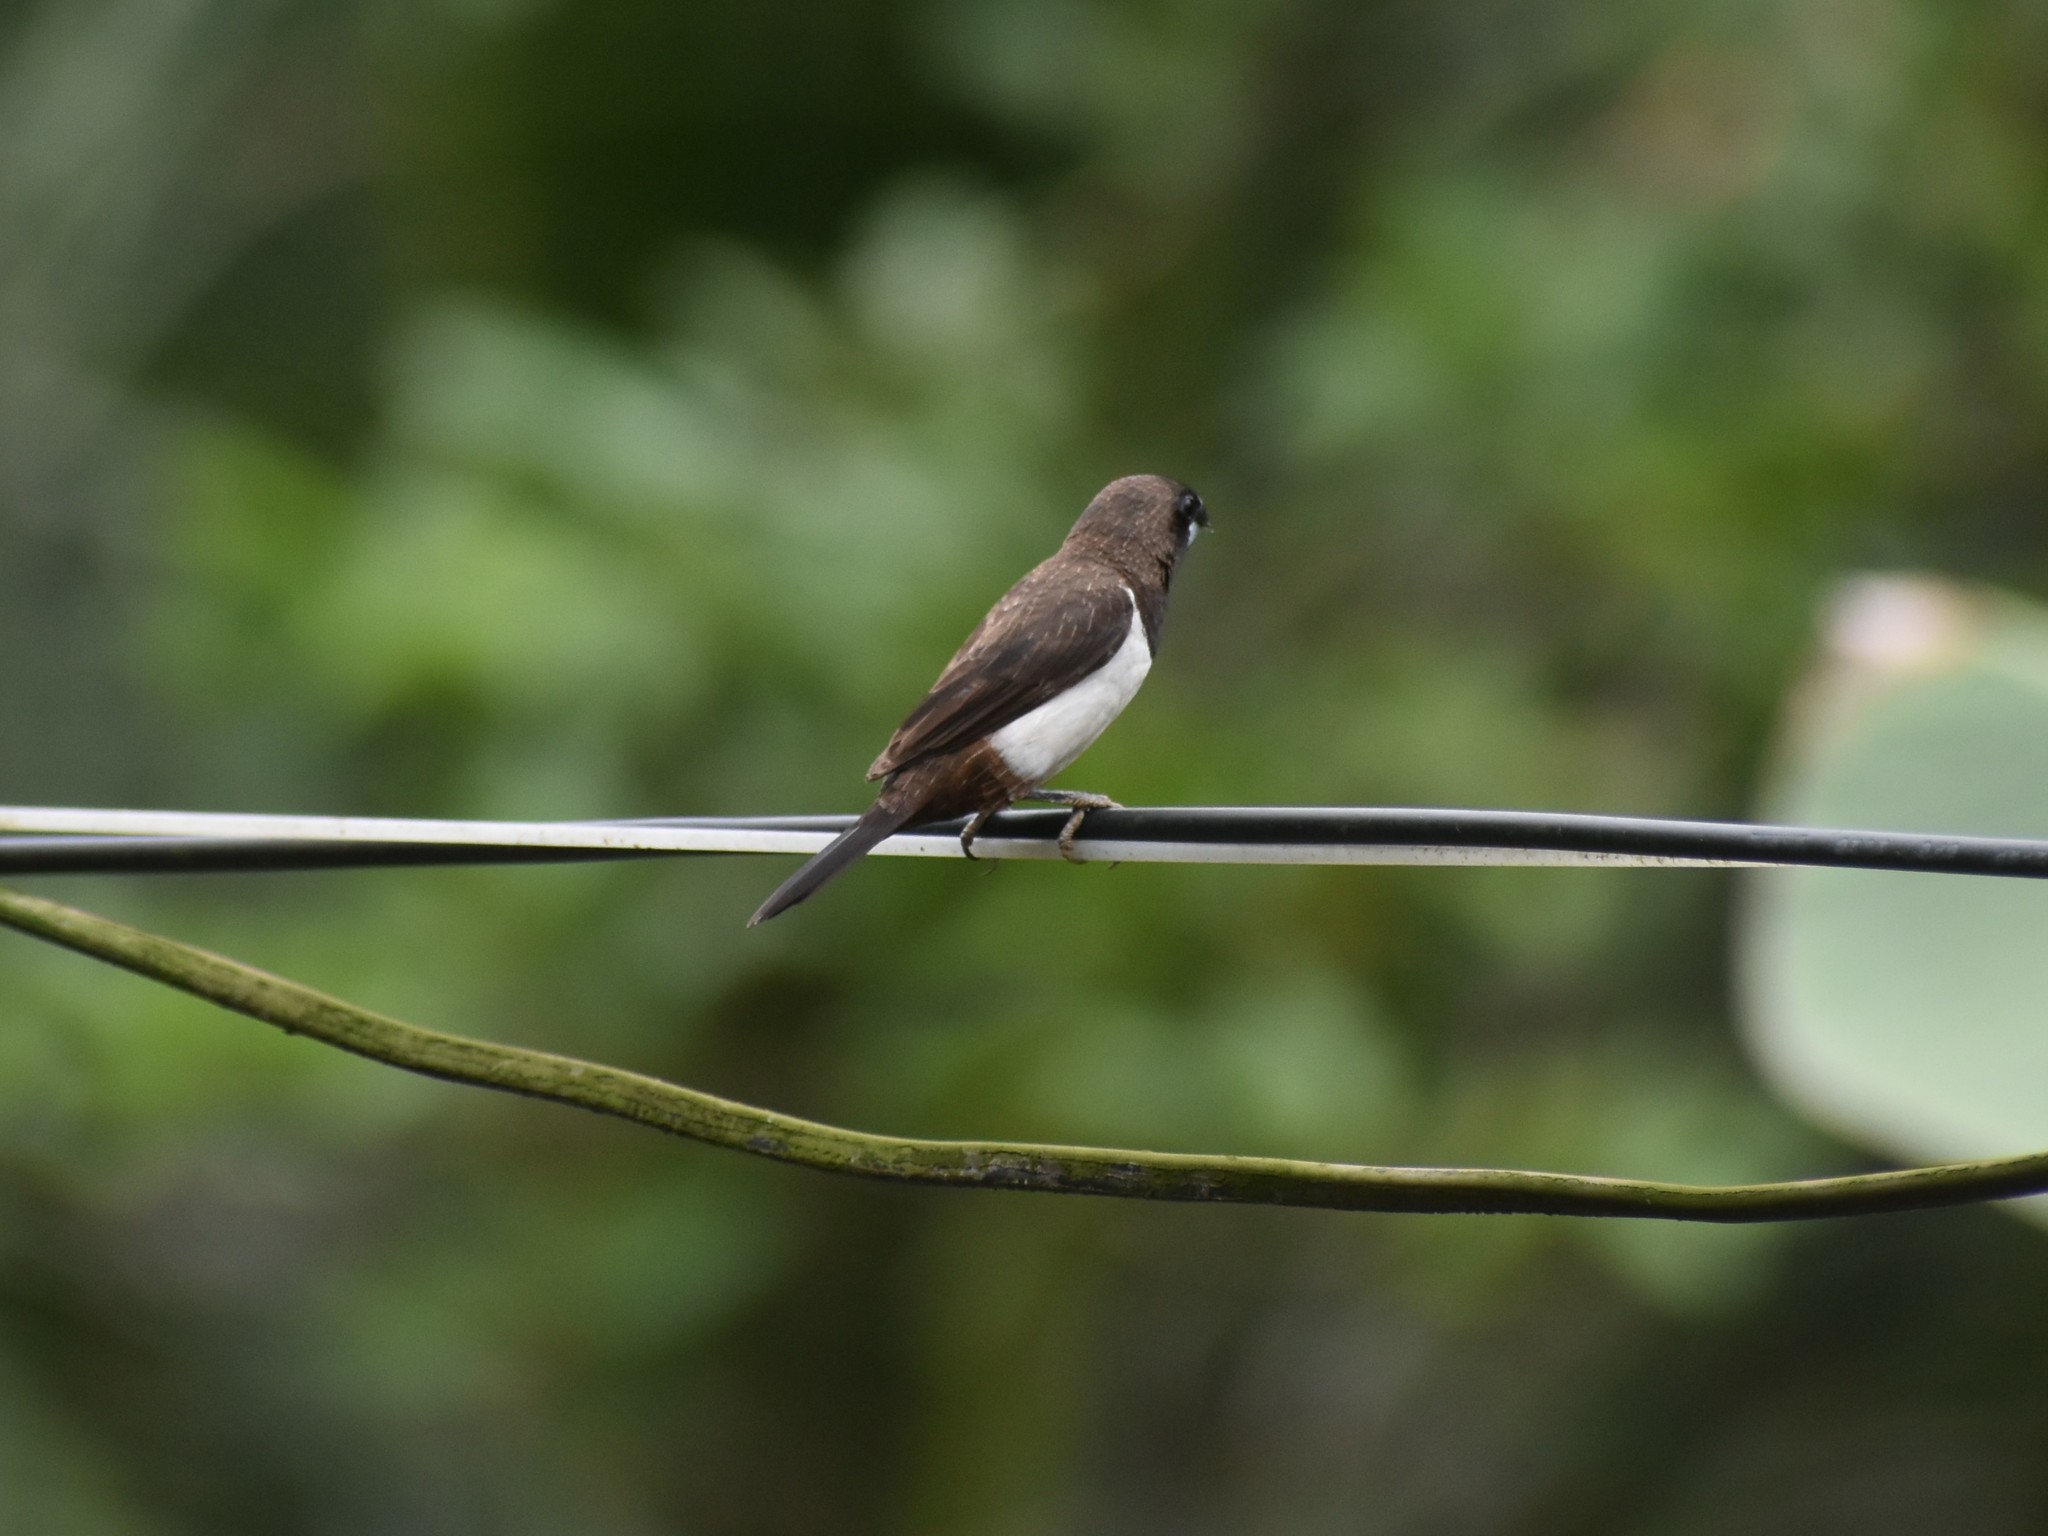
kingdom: Animalia
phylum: Chordata
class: Aves
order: Passeriformes
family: Estrildidae
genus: Lonchura
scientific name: Lonchura striata
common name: White-rumped munia
